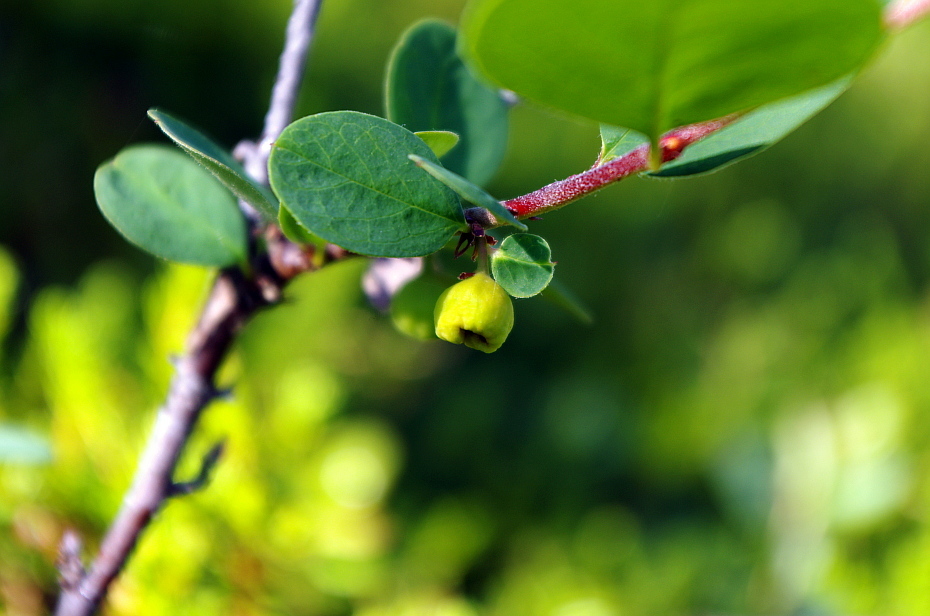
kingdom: Plantae
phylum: Tracheophyta
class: Magnoliopsida
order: Rosales
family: Rosaceae
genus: Cotoneaster
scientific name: Cotoneaster integerrimus
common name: Wild cotoneaster
